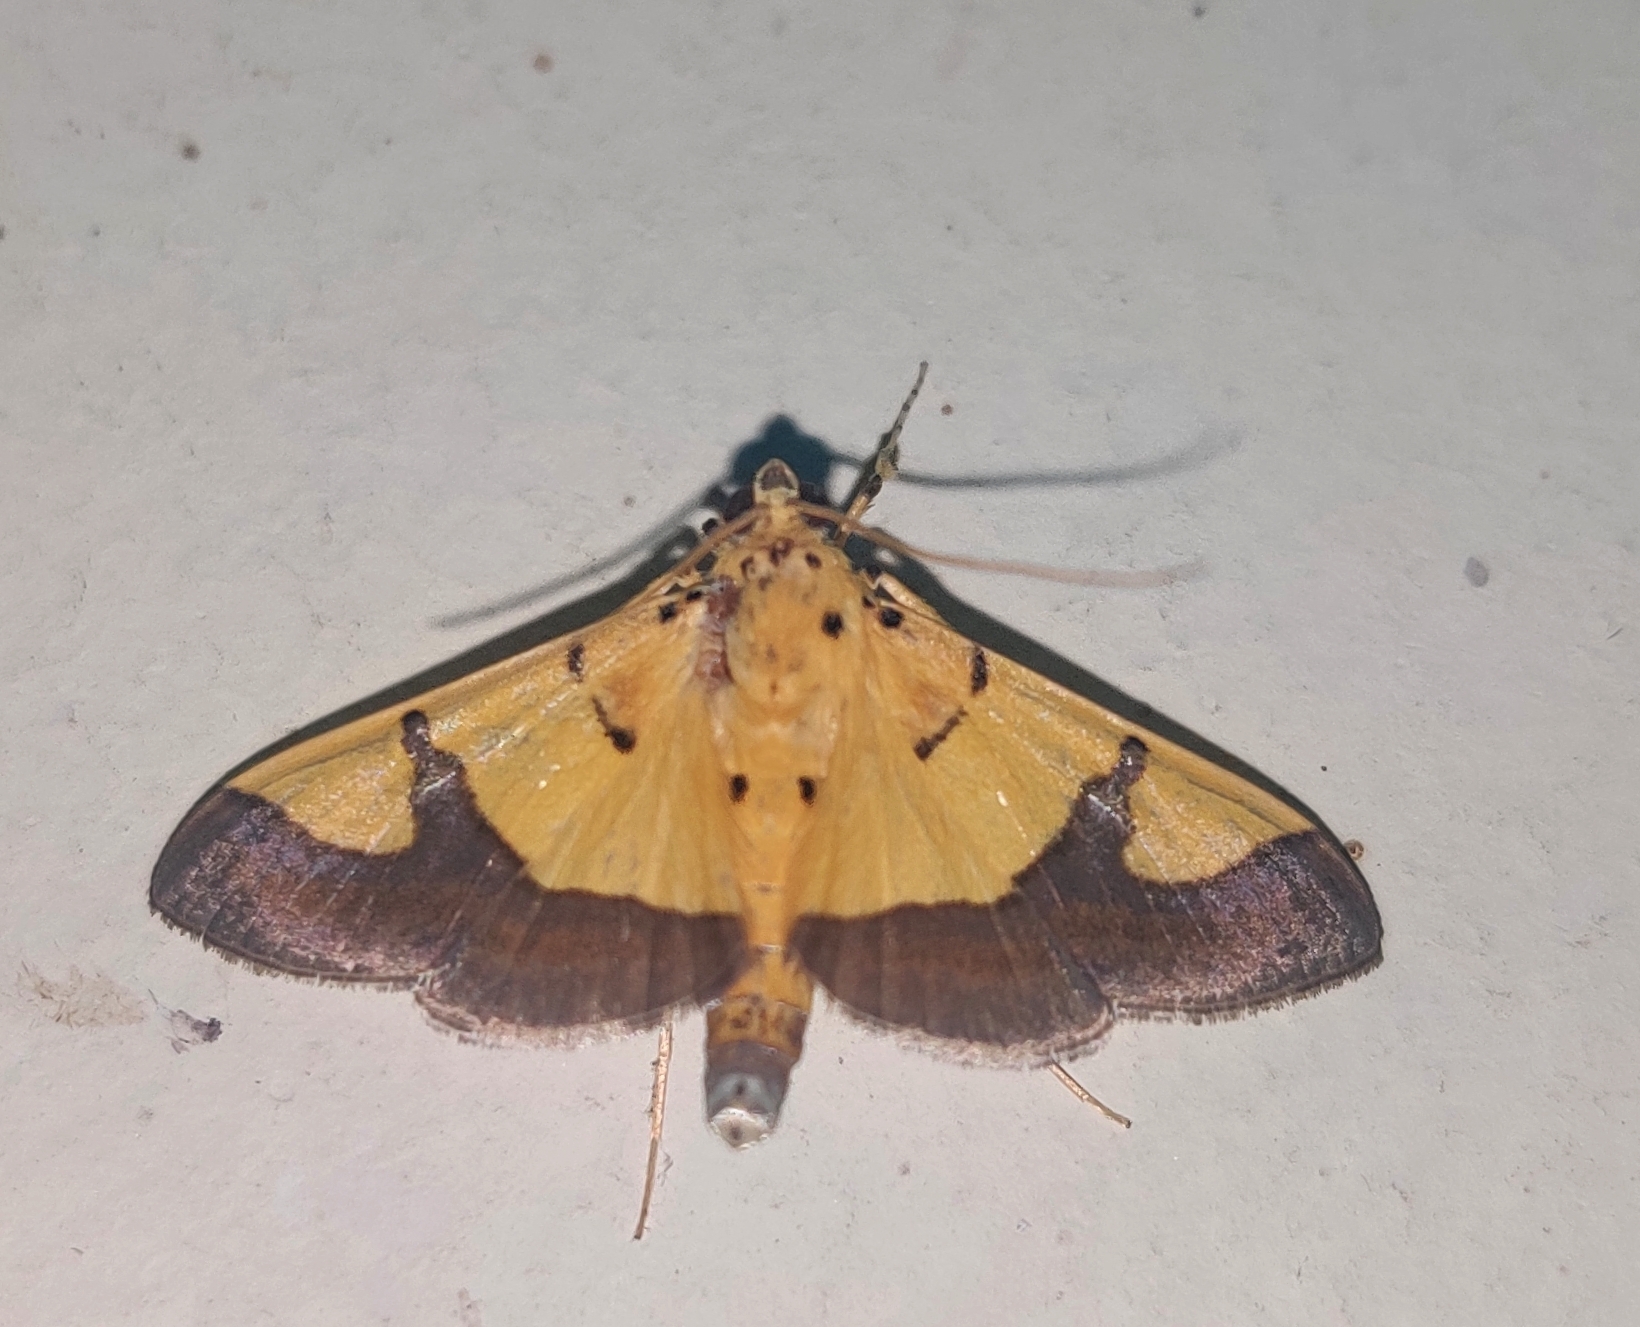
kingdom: Animalia
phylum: Arthropoda
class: Insecta
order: Lepidoptera
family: Crambidae
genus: Botyodes
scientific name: Botyodes
